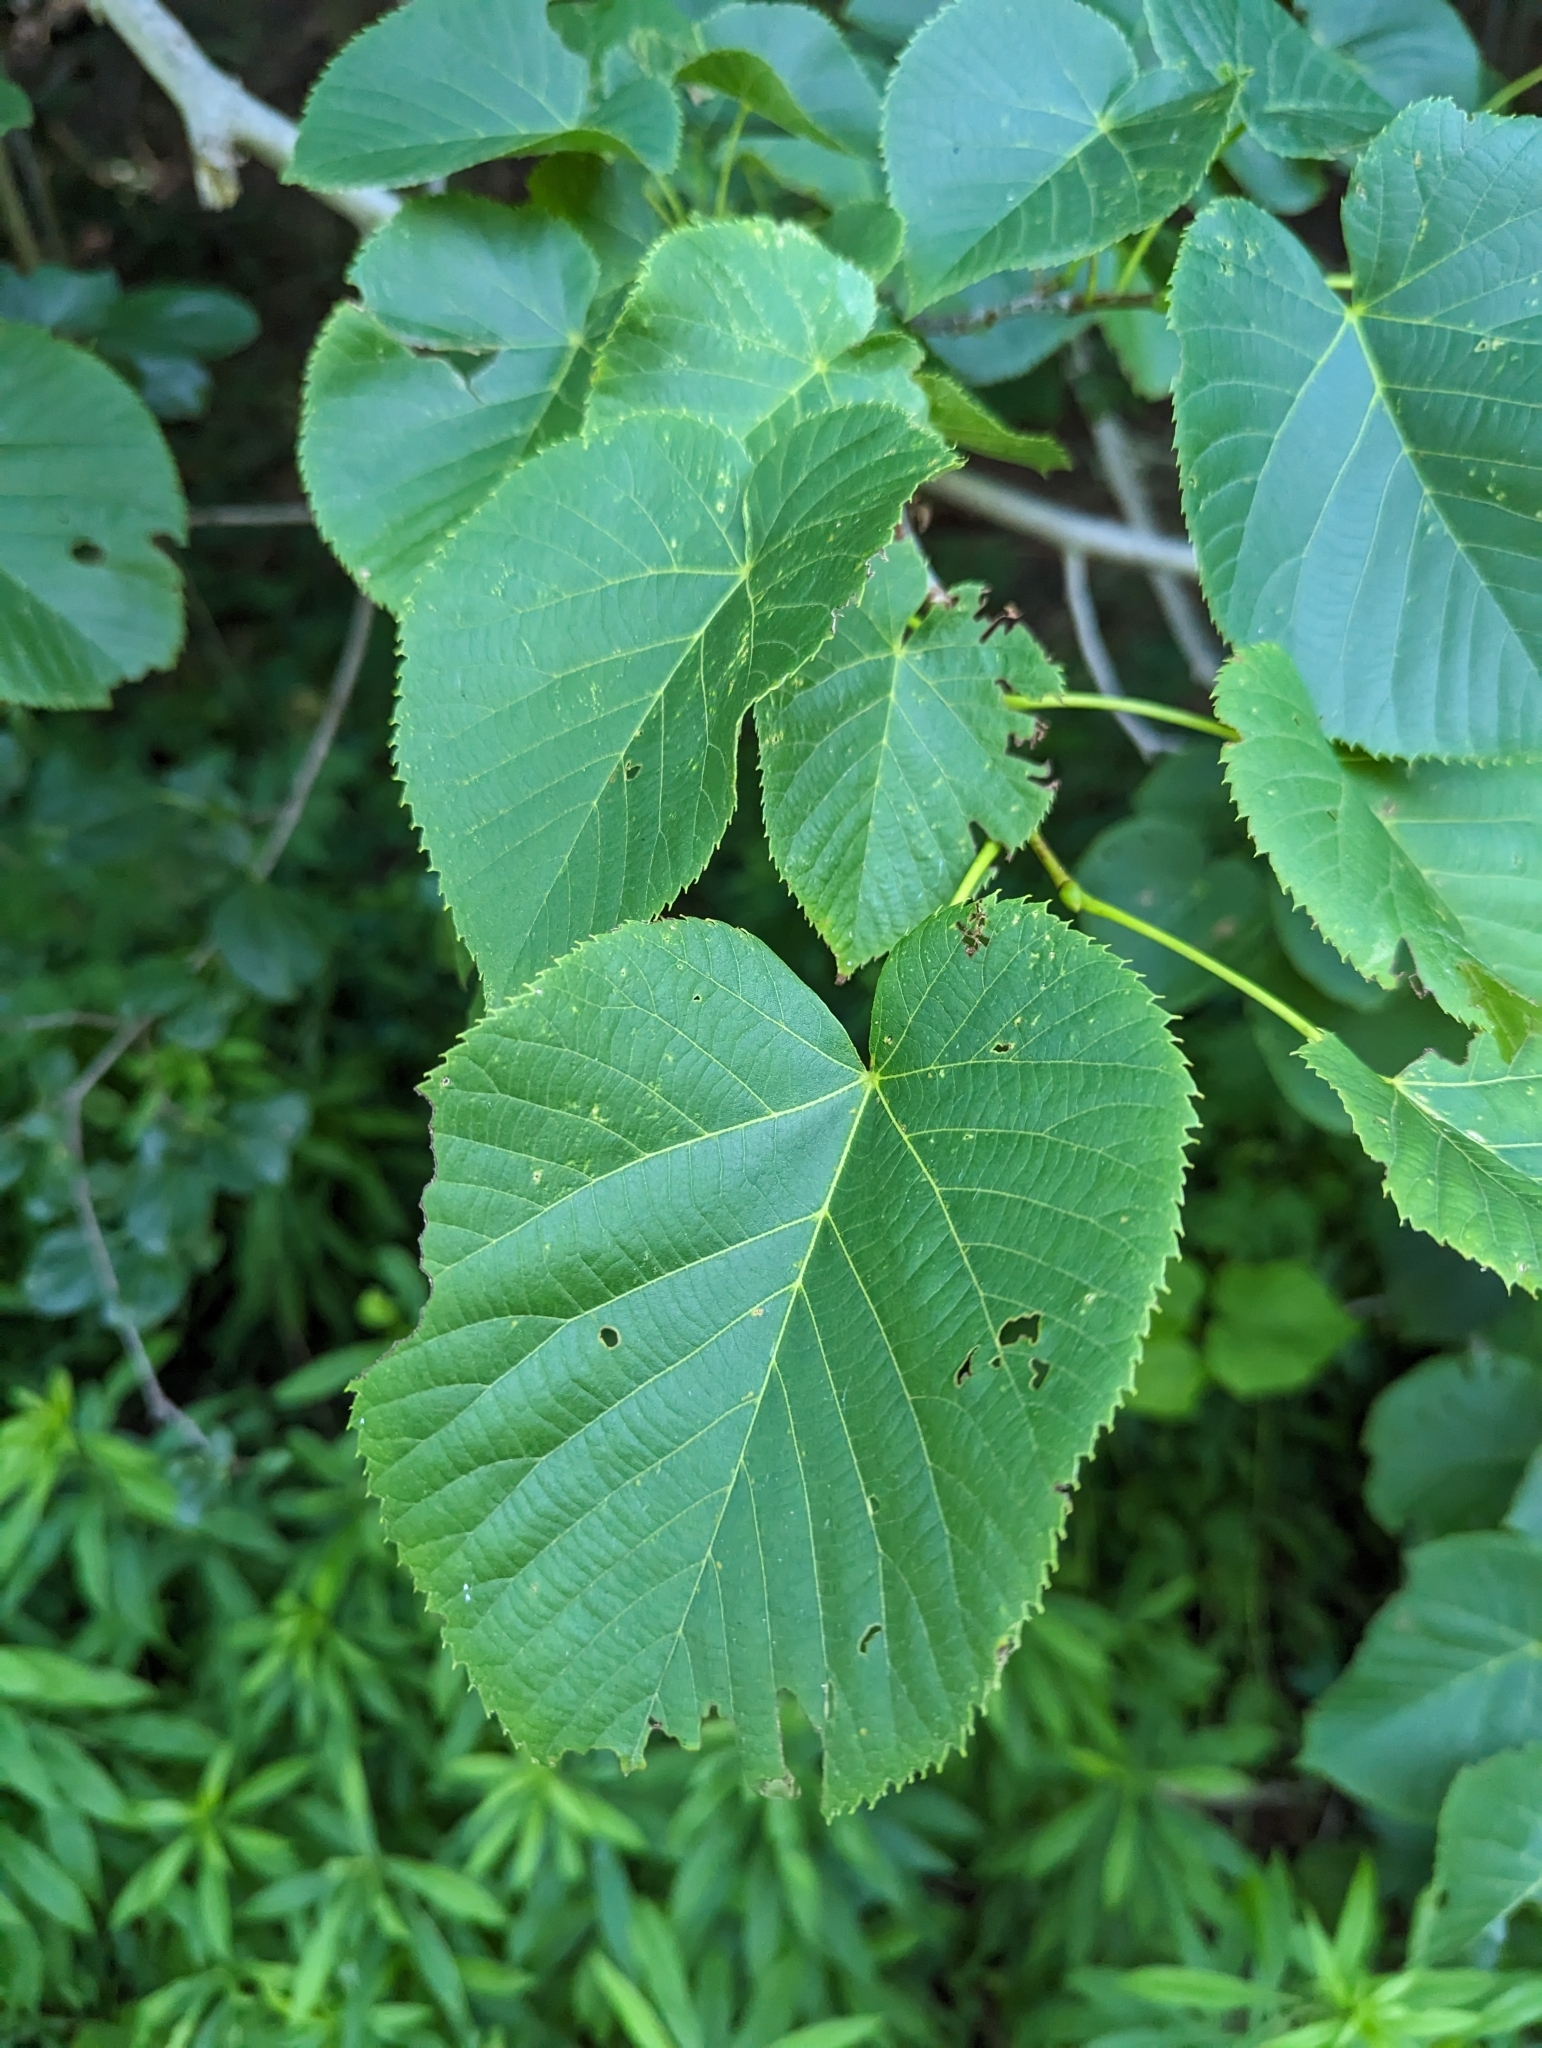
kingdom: Plantae
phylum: Tracheophyta
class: Magnoliopsida
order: Malvales
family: Malvaceae
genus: Tilia
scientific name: Tilia americana
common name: Basswood
